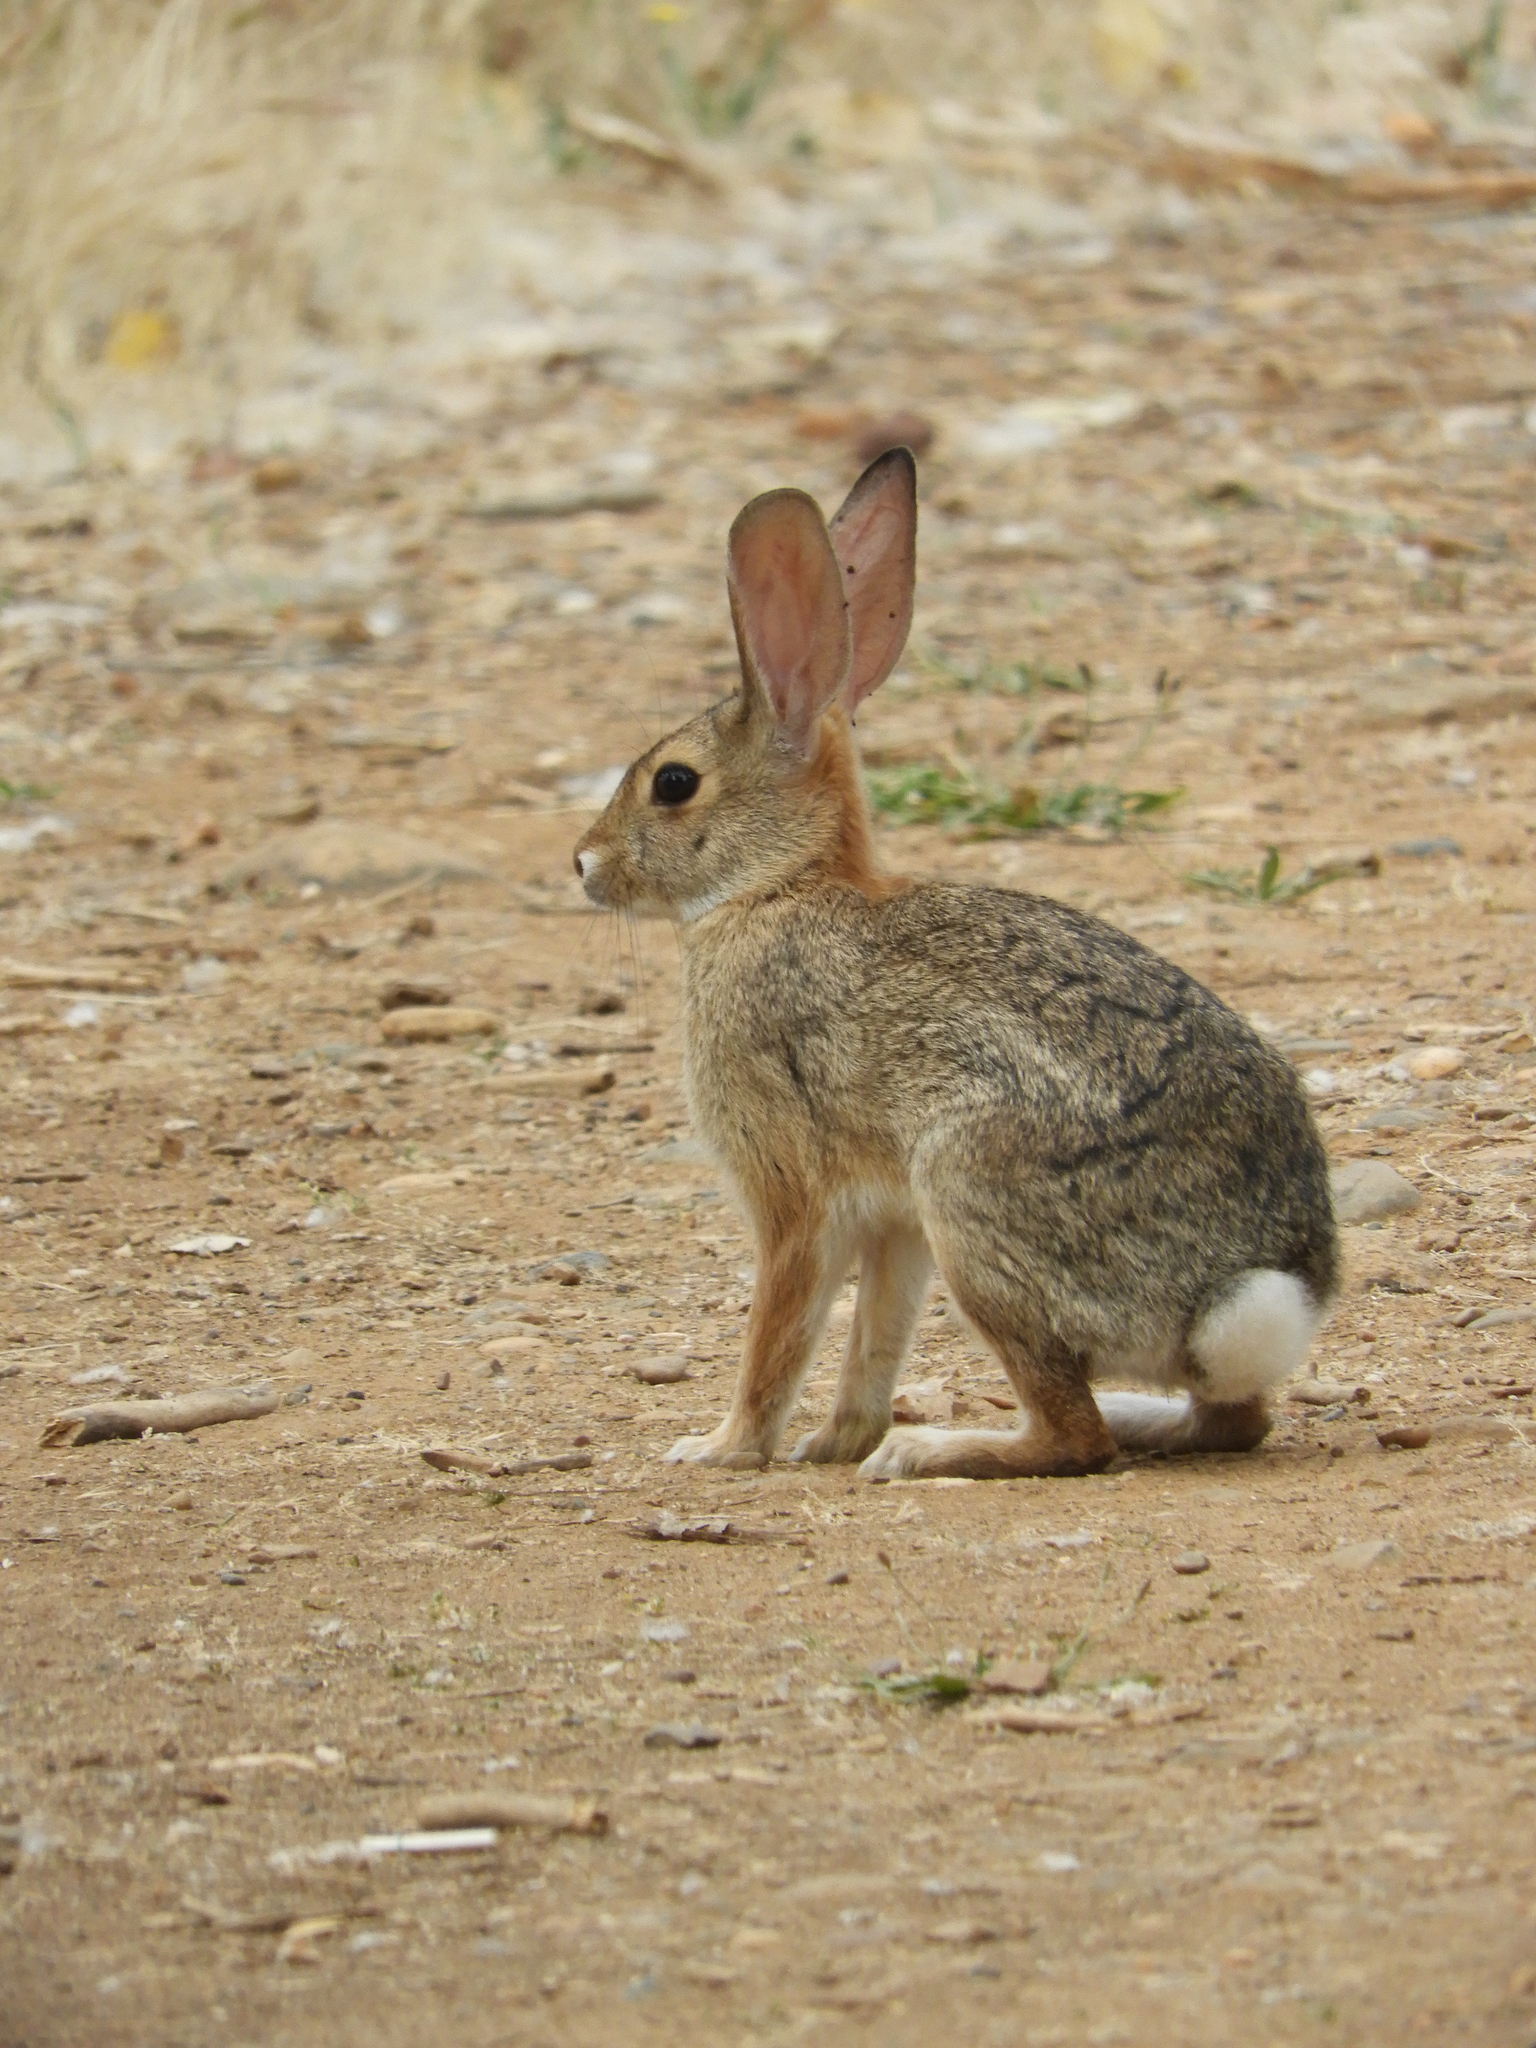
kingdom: Animalia
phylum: Chordata
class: Mammalia
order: Lagomorpha
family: Leporidae
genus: Sylvilagus
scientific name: Sylvilagus audubonii
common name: Desert cottontail
